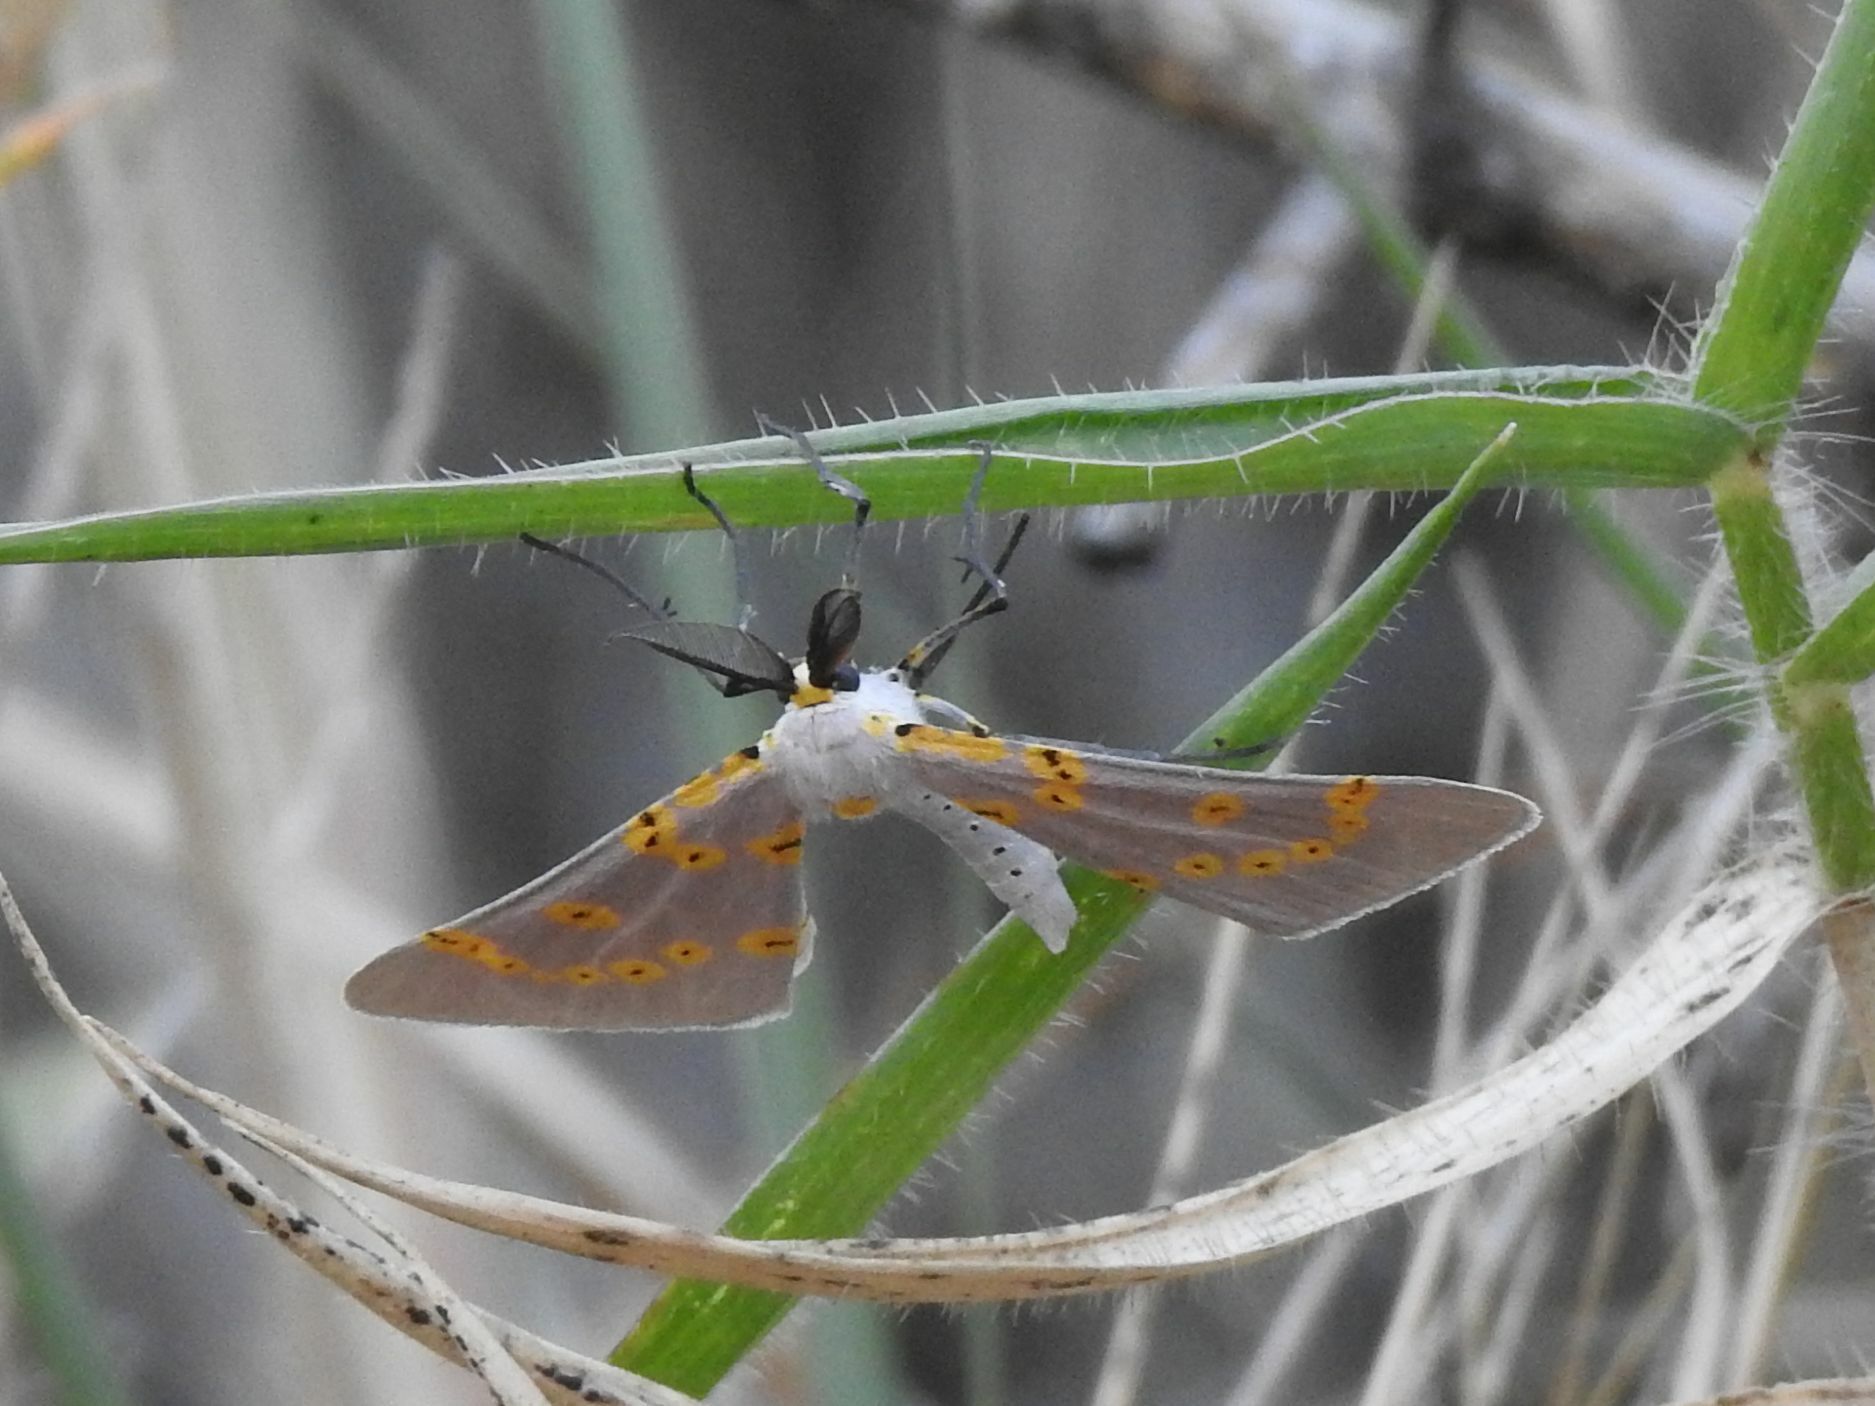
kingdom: Animalia
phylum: Arthropoda
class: Insecta
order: Lepidoptera
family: Geometridae
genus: Nassinia
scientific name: Nassinia caffraria
